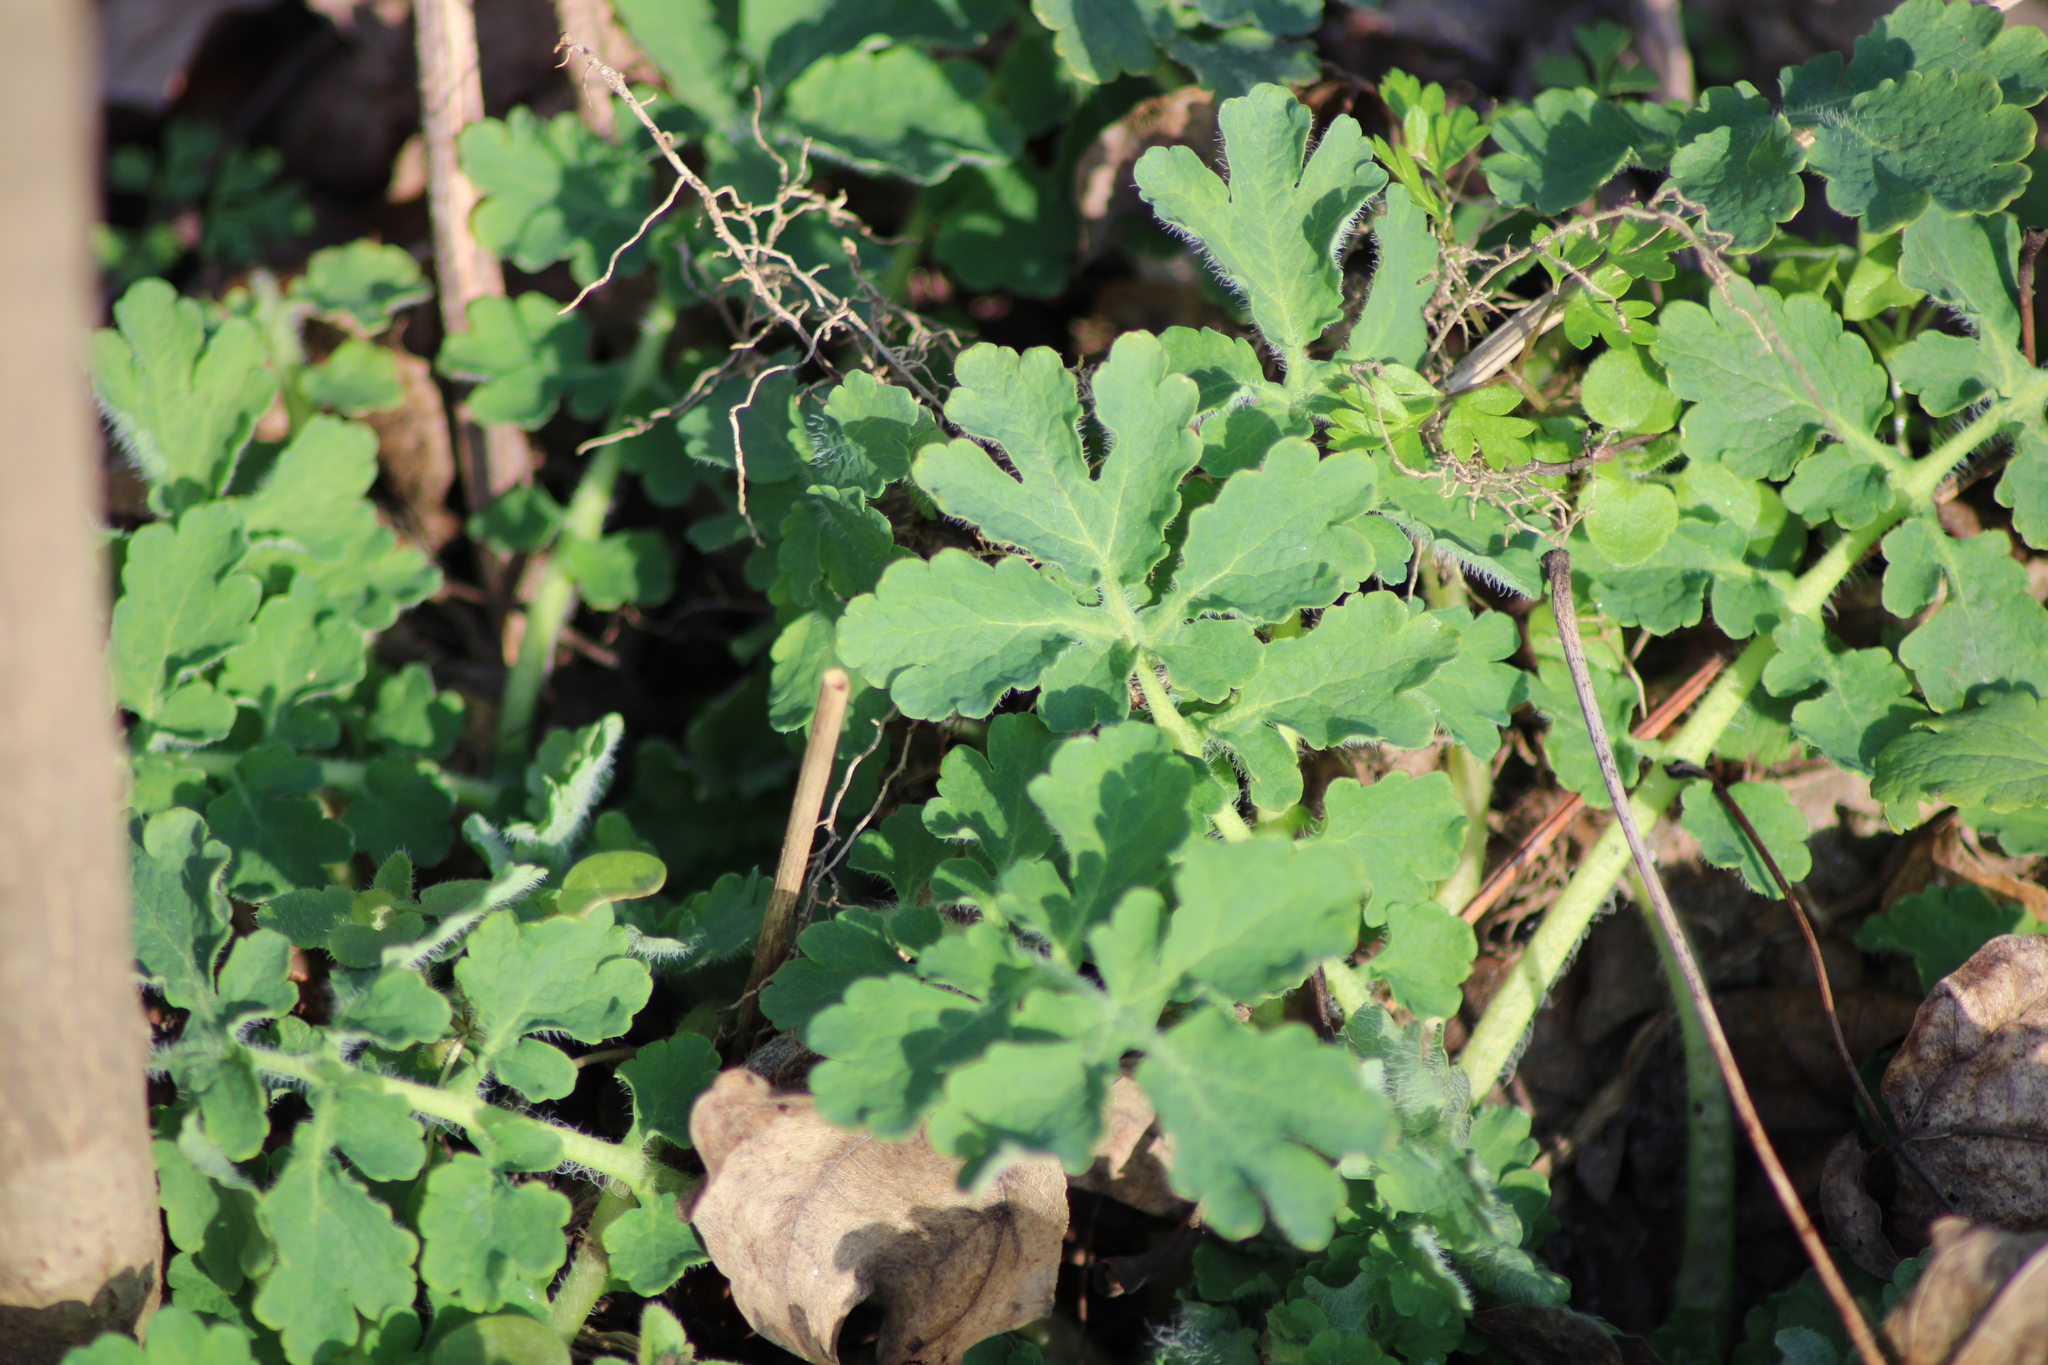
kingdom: Plantae
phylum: Tracheophyta
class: Magnoliopsida
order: Ranunculales
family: Papaveraceae
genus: Chelidonium
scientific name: Chelidonium majus
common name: Greater celandine
